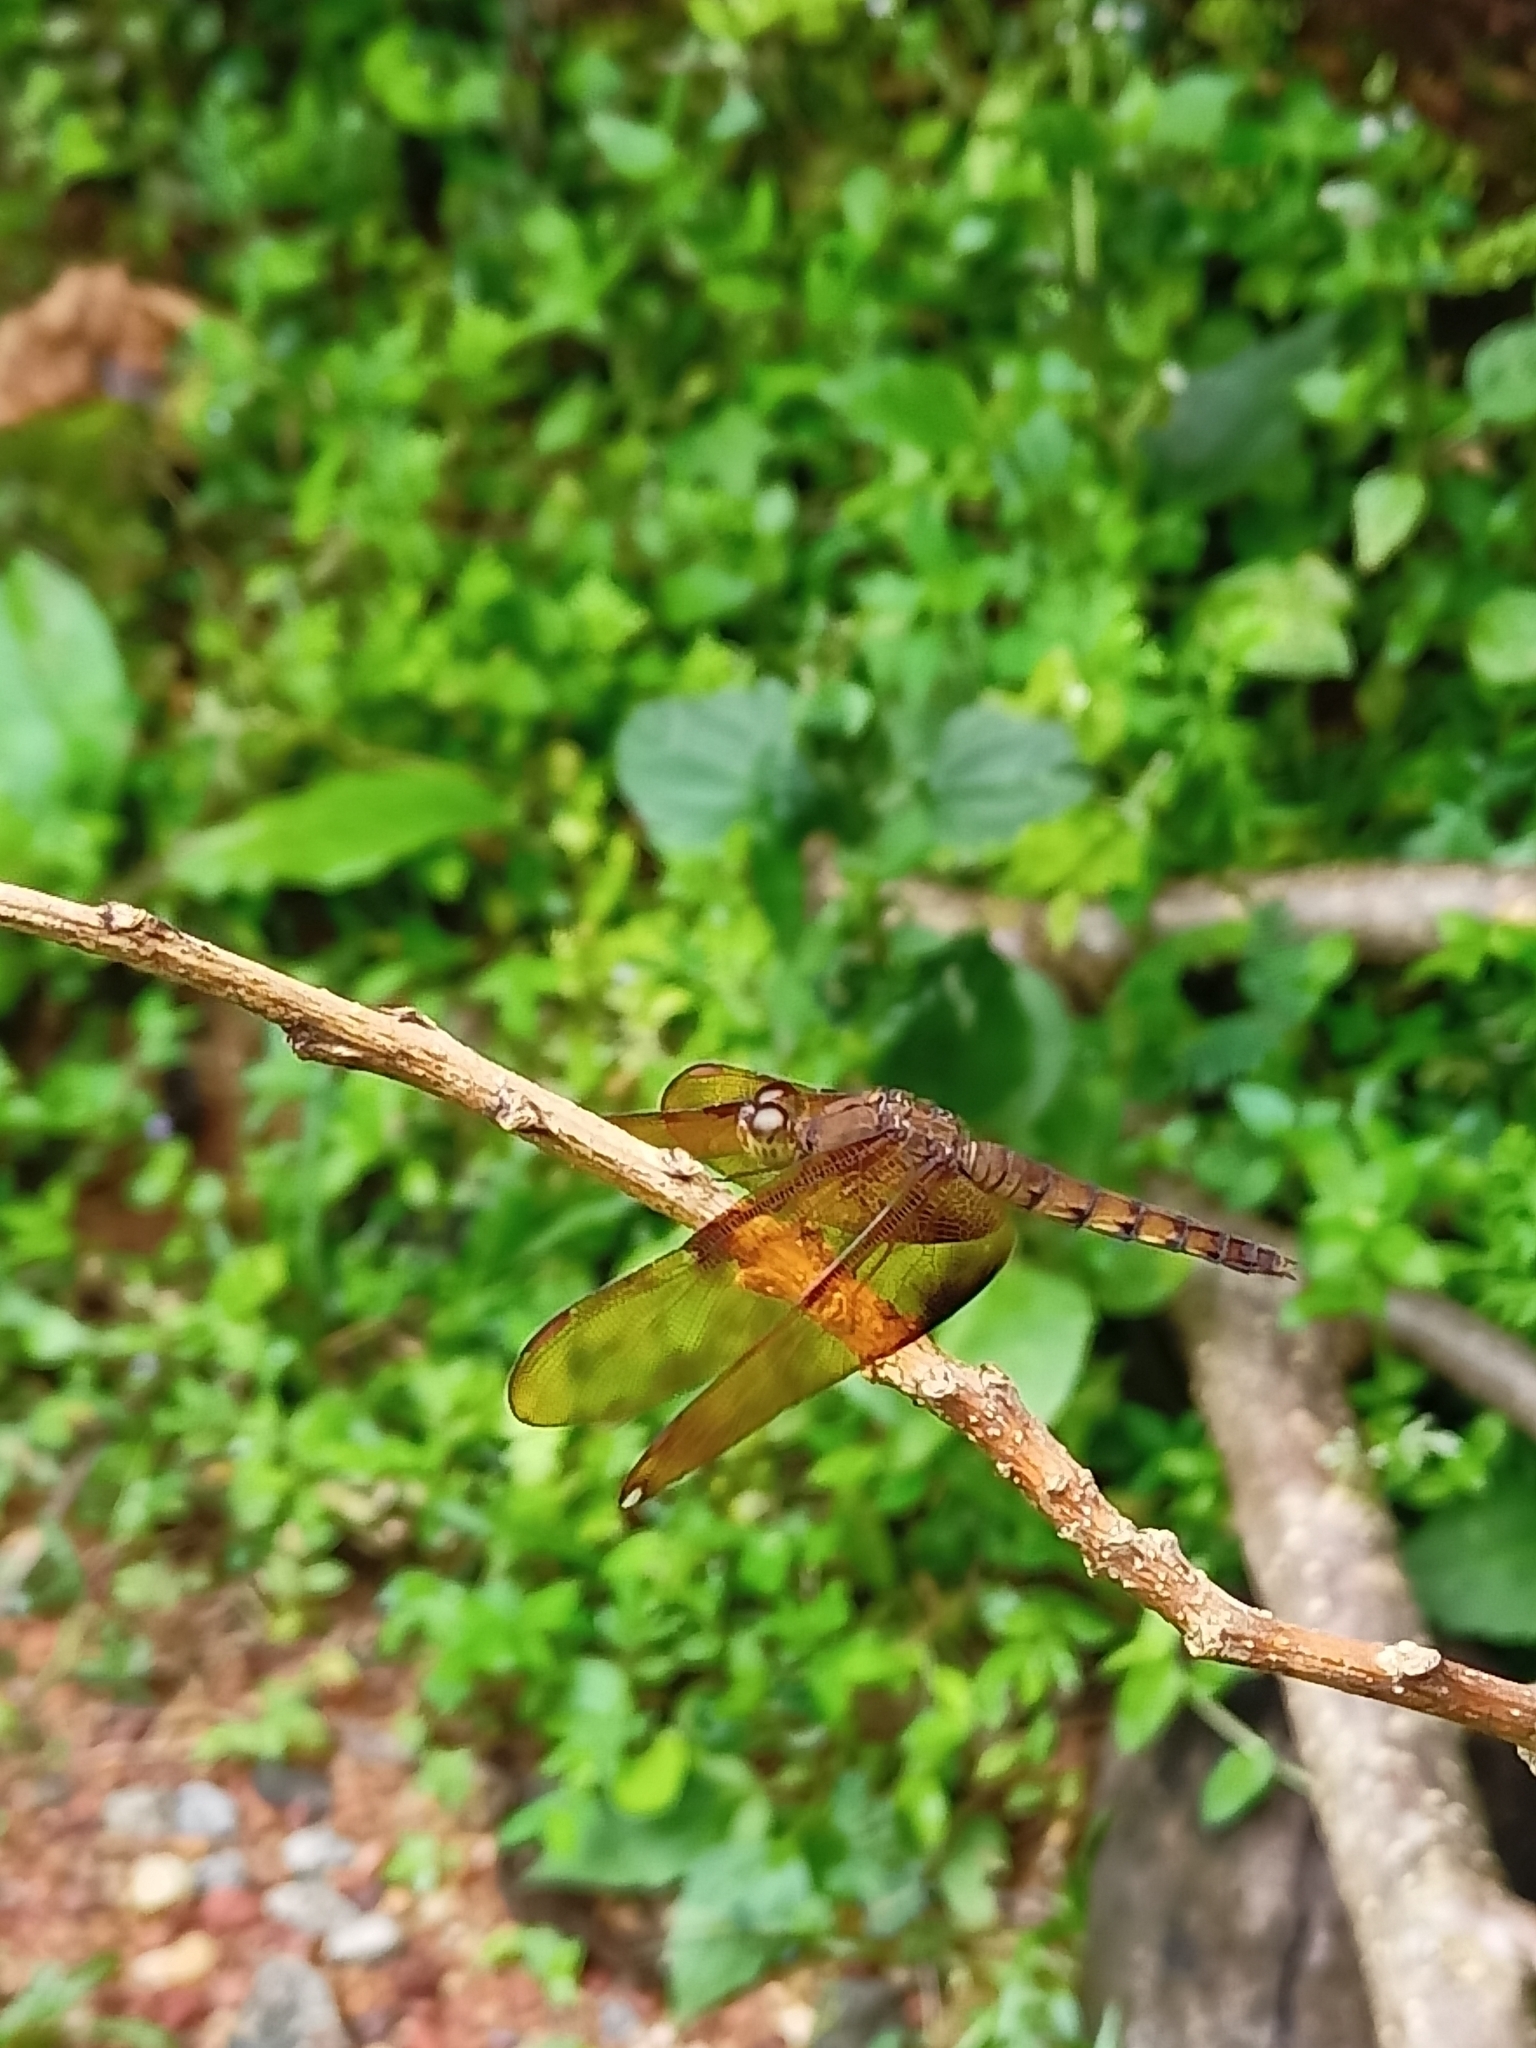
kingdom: Animalia
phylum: Arthropoda
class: Insecta
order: Odonata
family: Libellulidae
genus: Neurothemis
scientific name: Neurothemis fulvia
